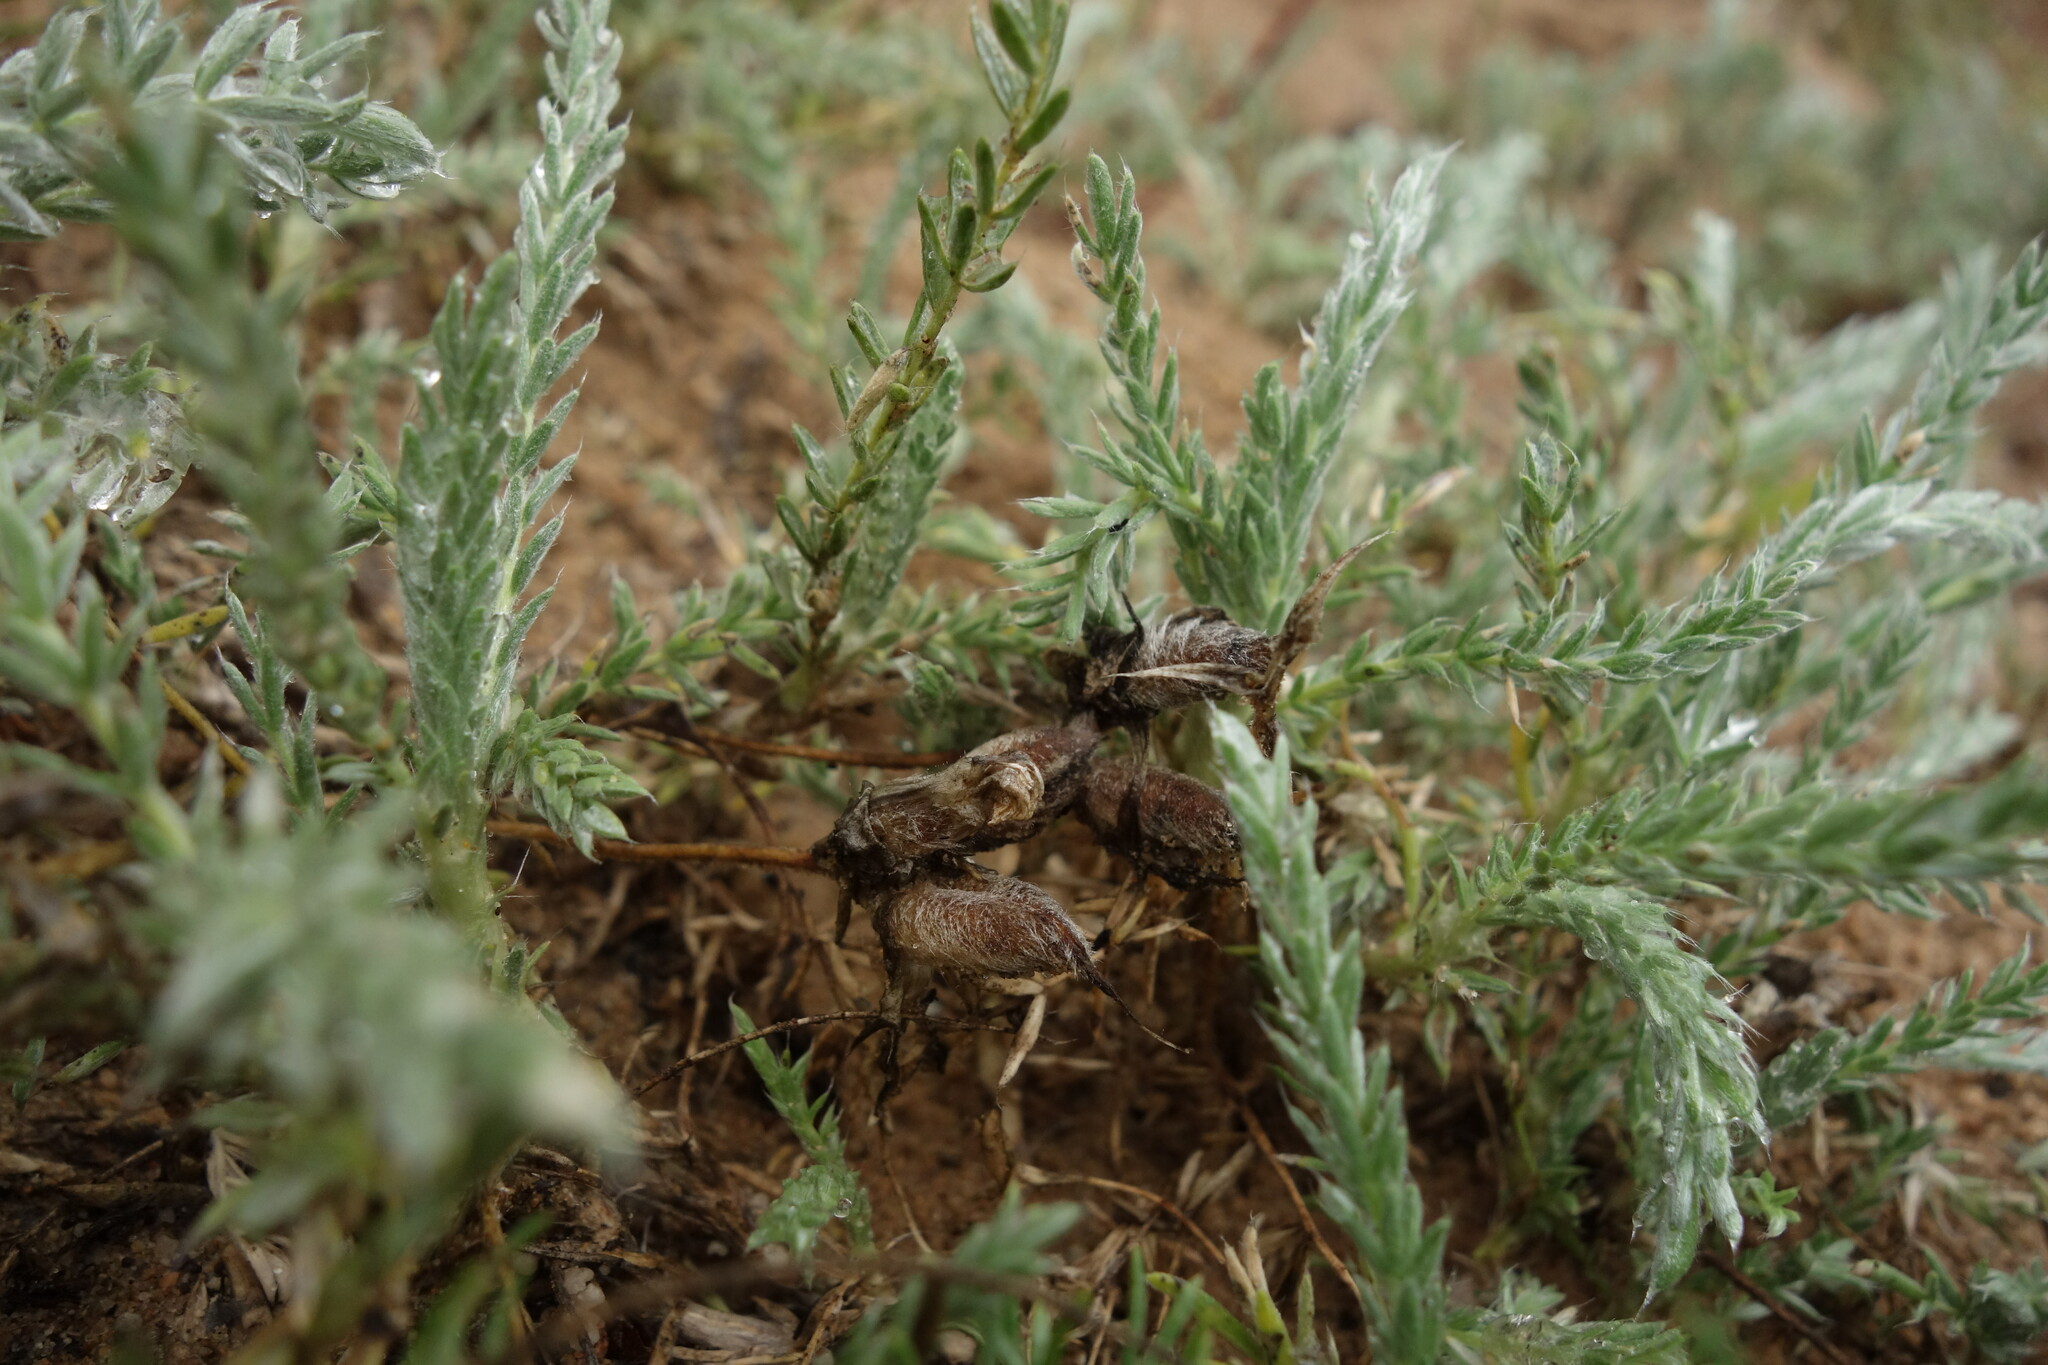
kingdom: Plantae
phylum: Tracheophyta
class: Magnoliopsida
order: Fabales
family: Fabaceae
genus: Oxytropis
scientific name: Oxytropis lanata
